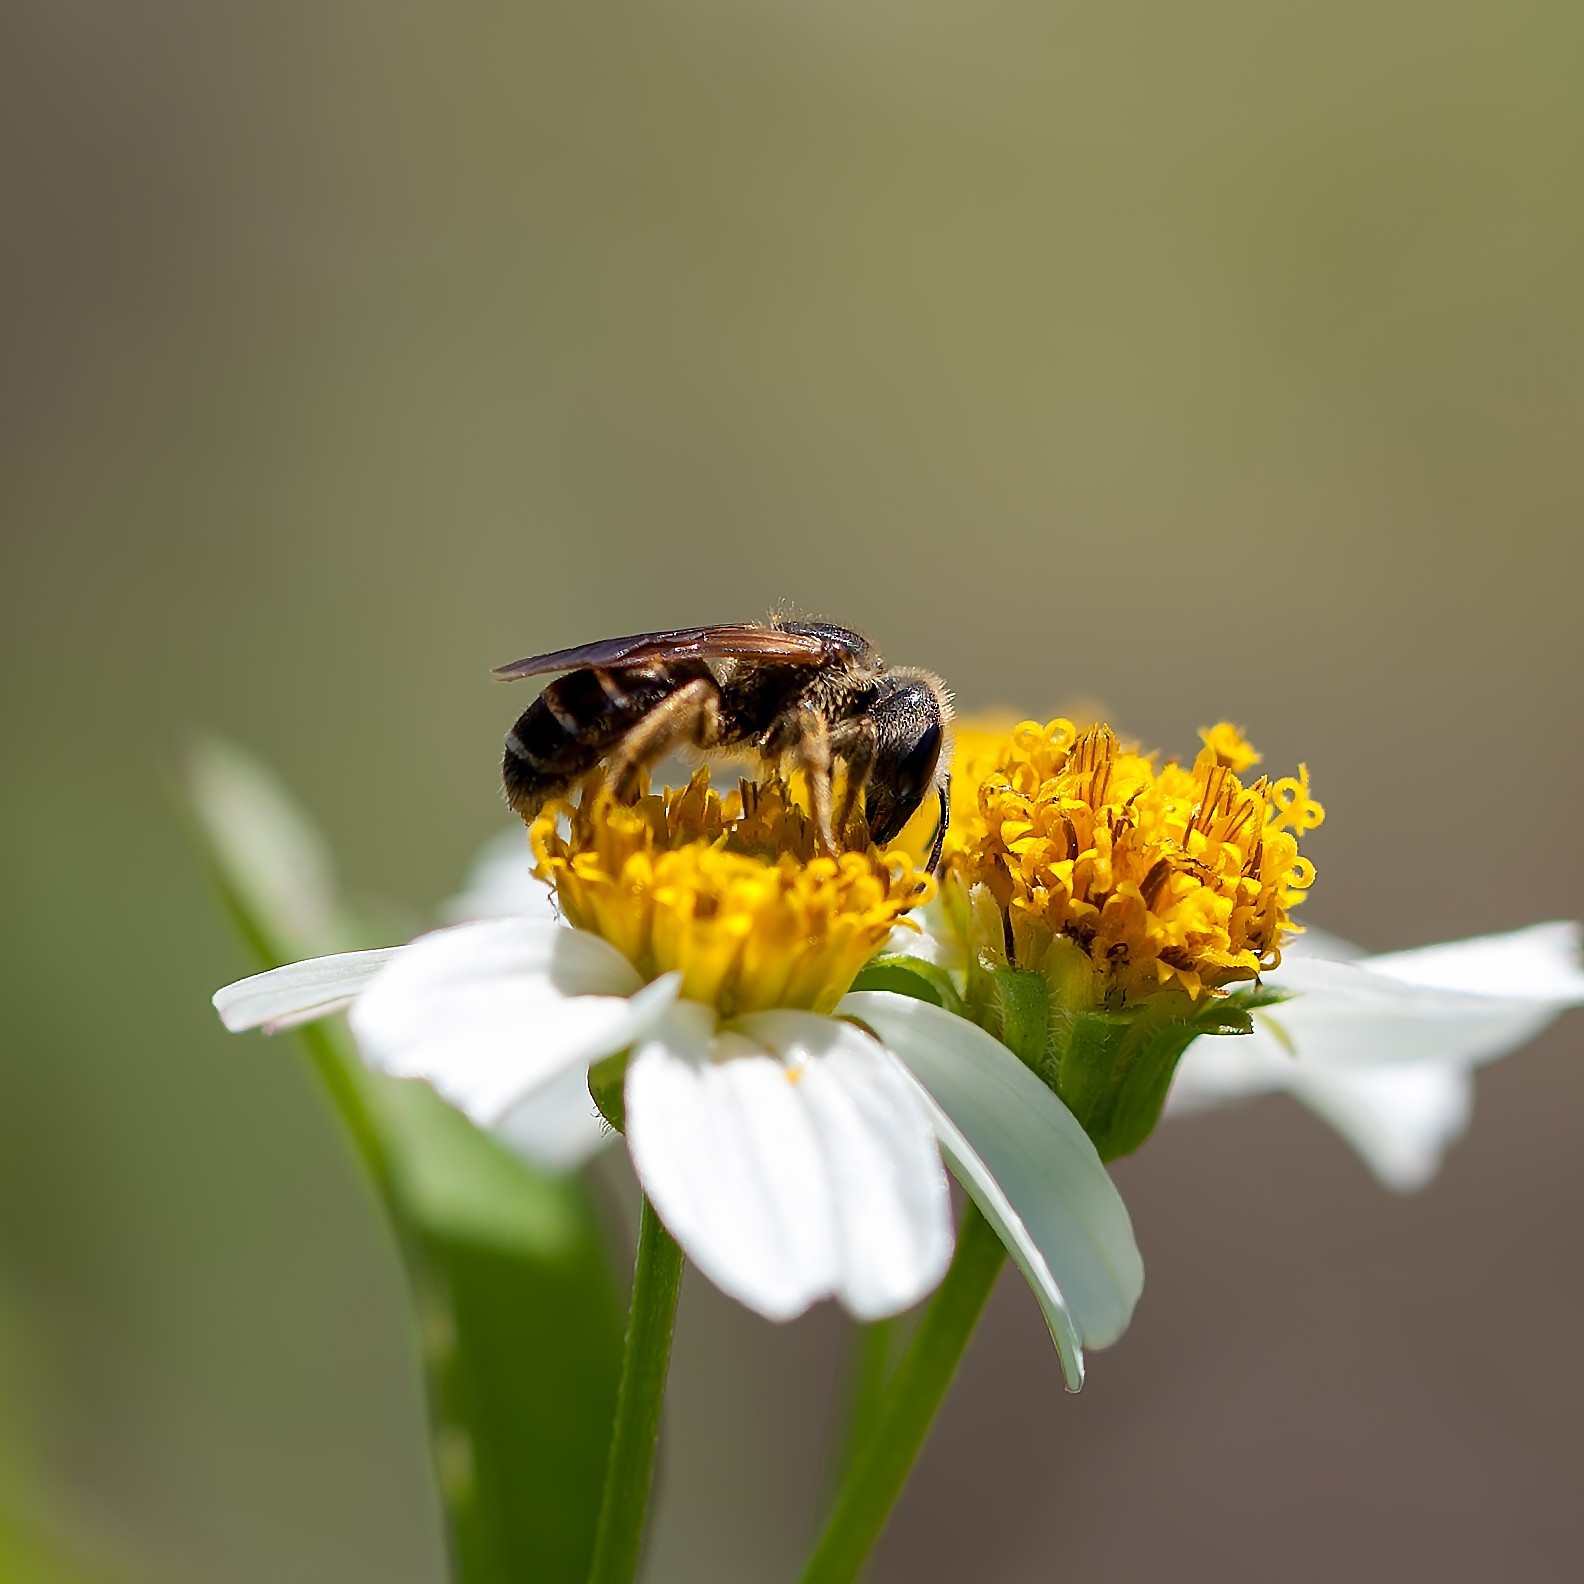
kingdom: Animalia
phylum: Arthropoda
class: Insecta
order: Hymenoptera
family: Halictidae
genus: Halictus
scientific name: Halictus poeyi
